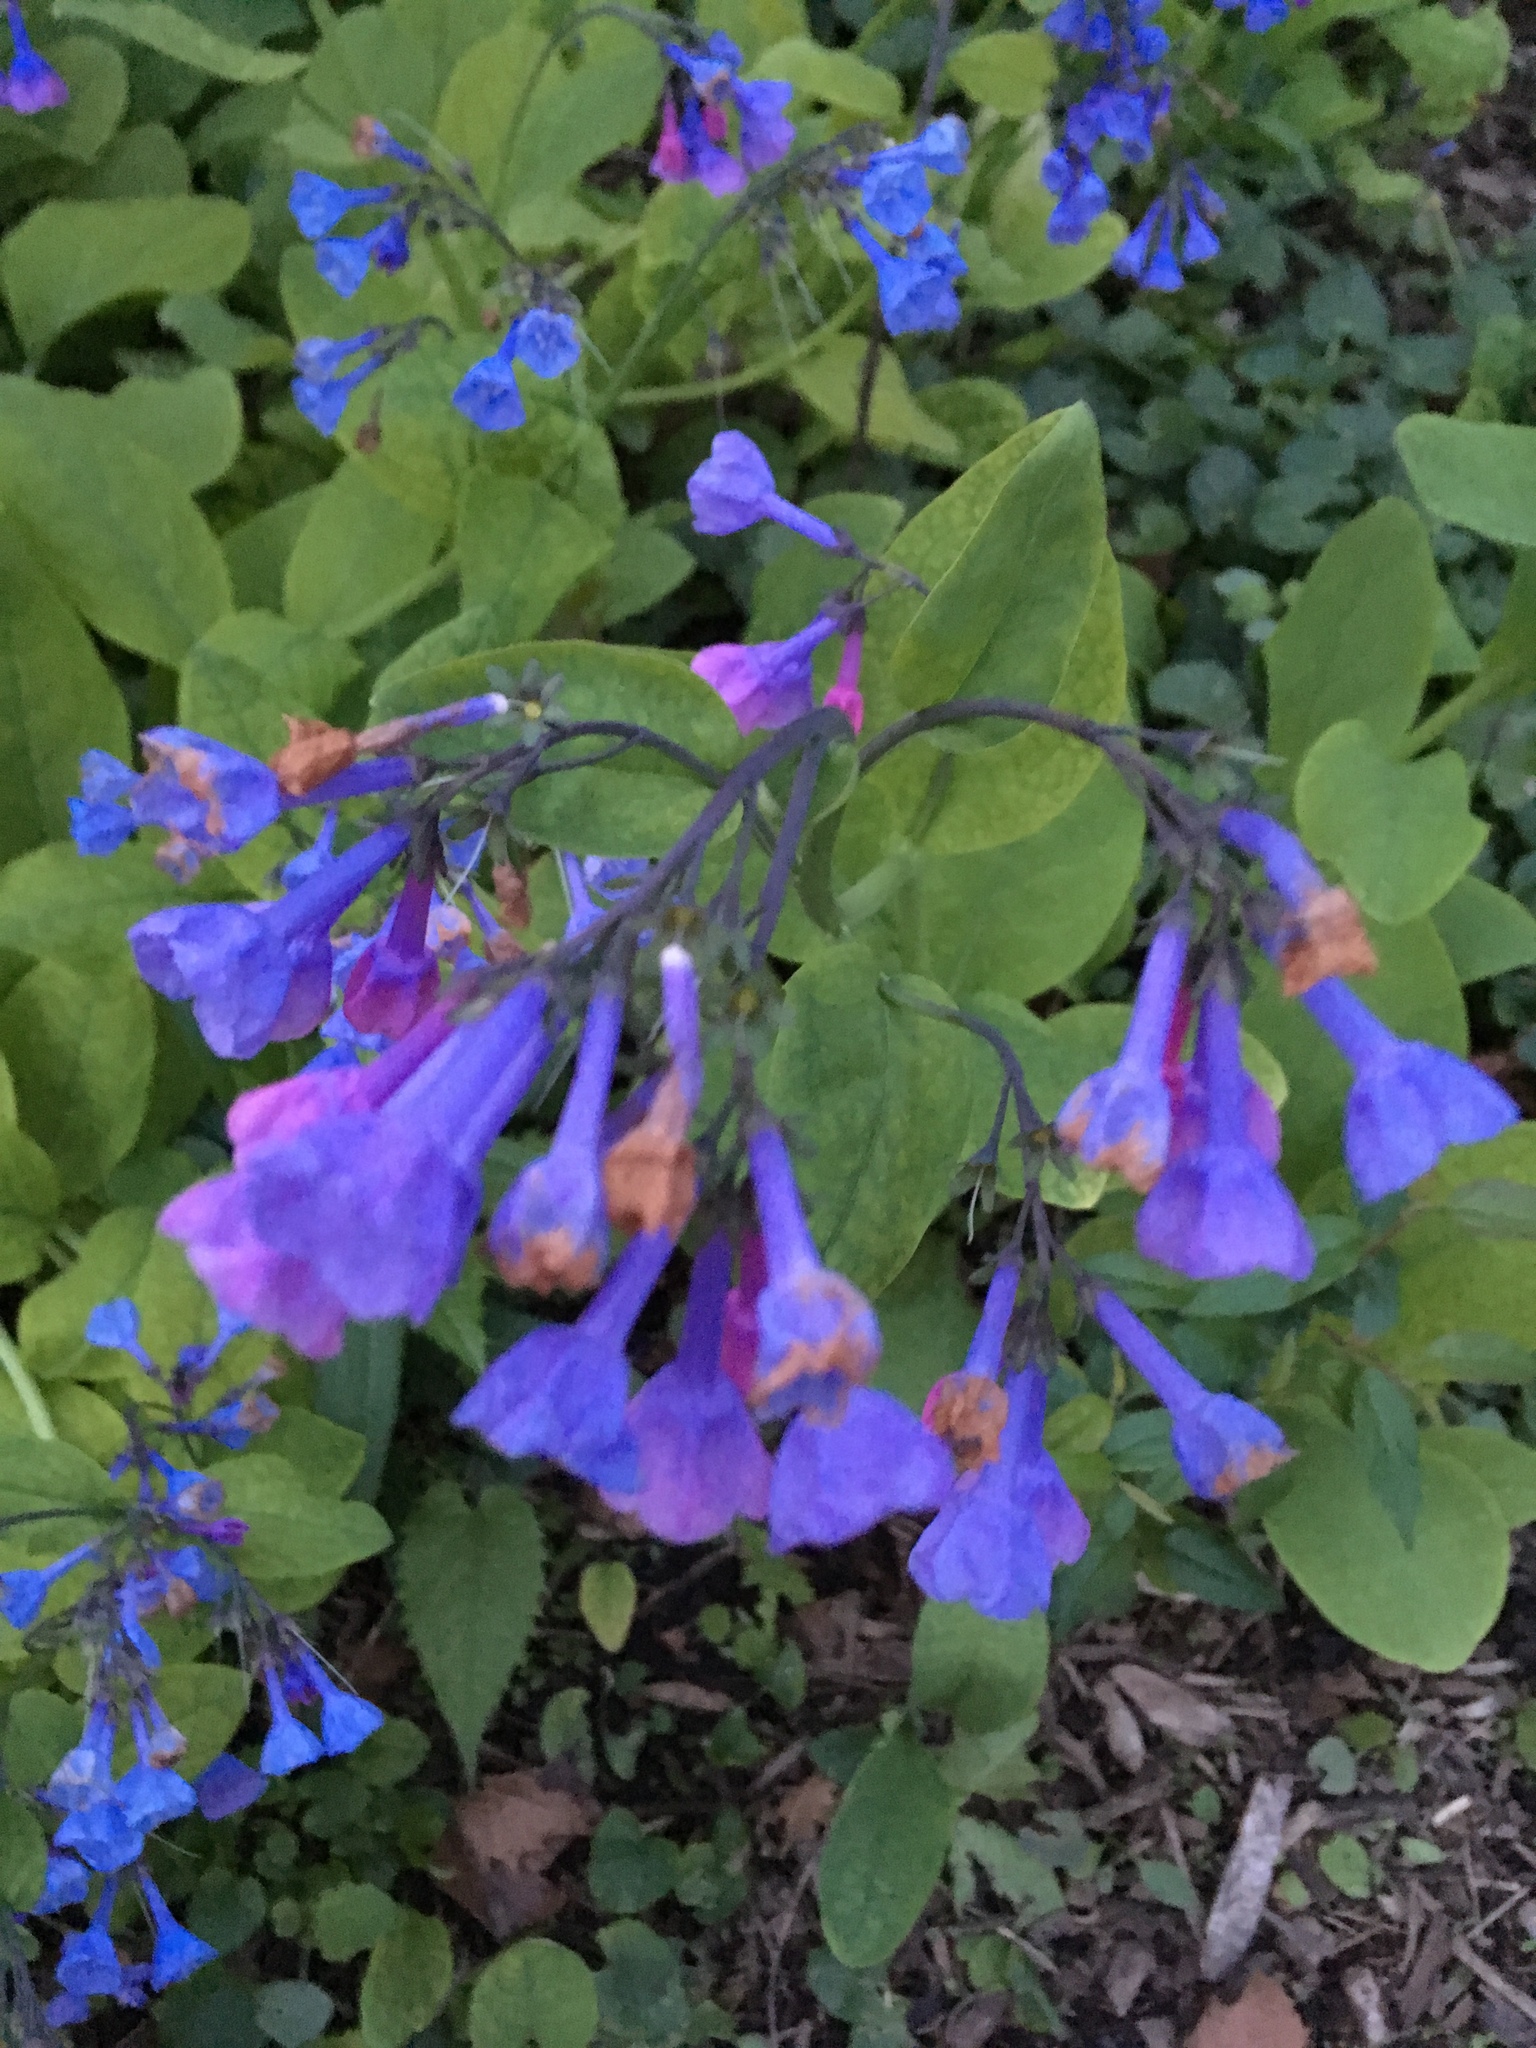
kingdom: Plantae
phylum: Tracheophyta
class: Magnoliopsida
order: Boraginales
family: Boraginaceae
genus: Mertensia
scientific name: Mertensia virginica
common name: Virginia bluebells
